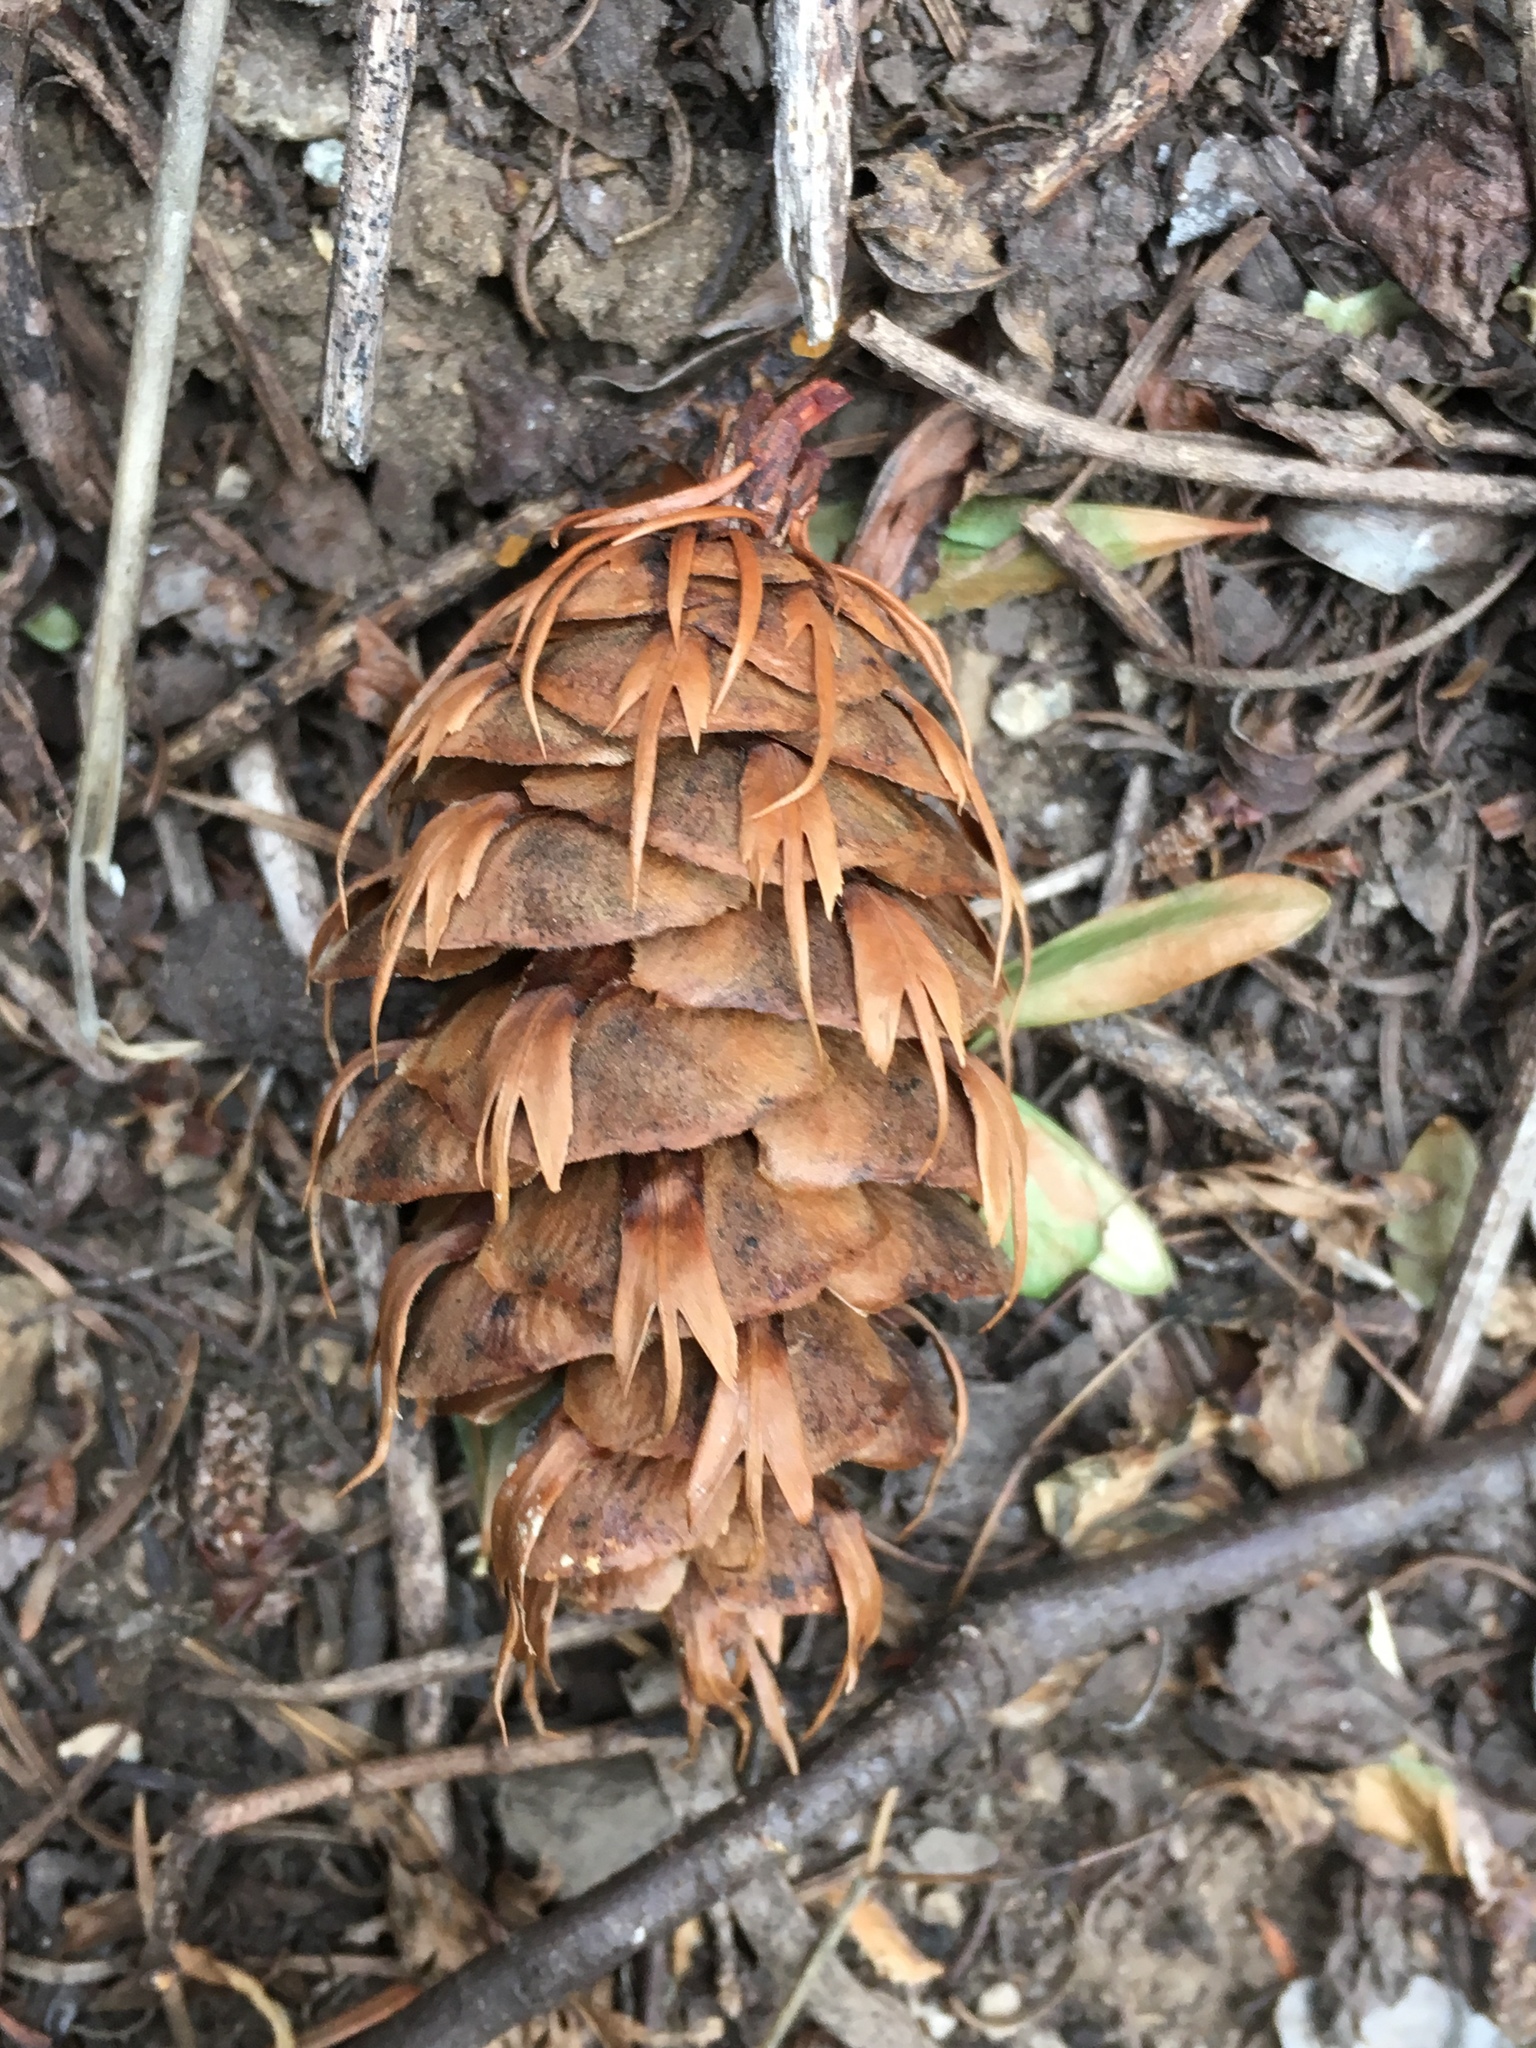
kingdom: Plantae
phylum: Tracheophyta
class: Pinopsida
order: Pinales
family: Pinaceae
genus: Pseudotsuga
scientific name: Pseudotsuga menziesii
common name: Douglas fir
